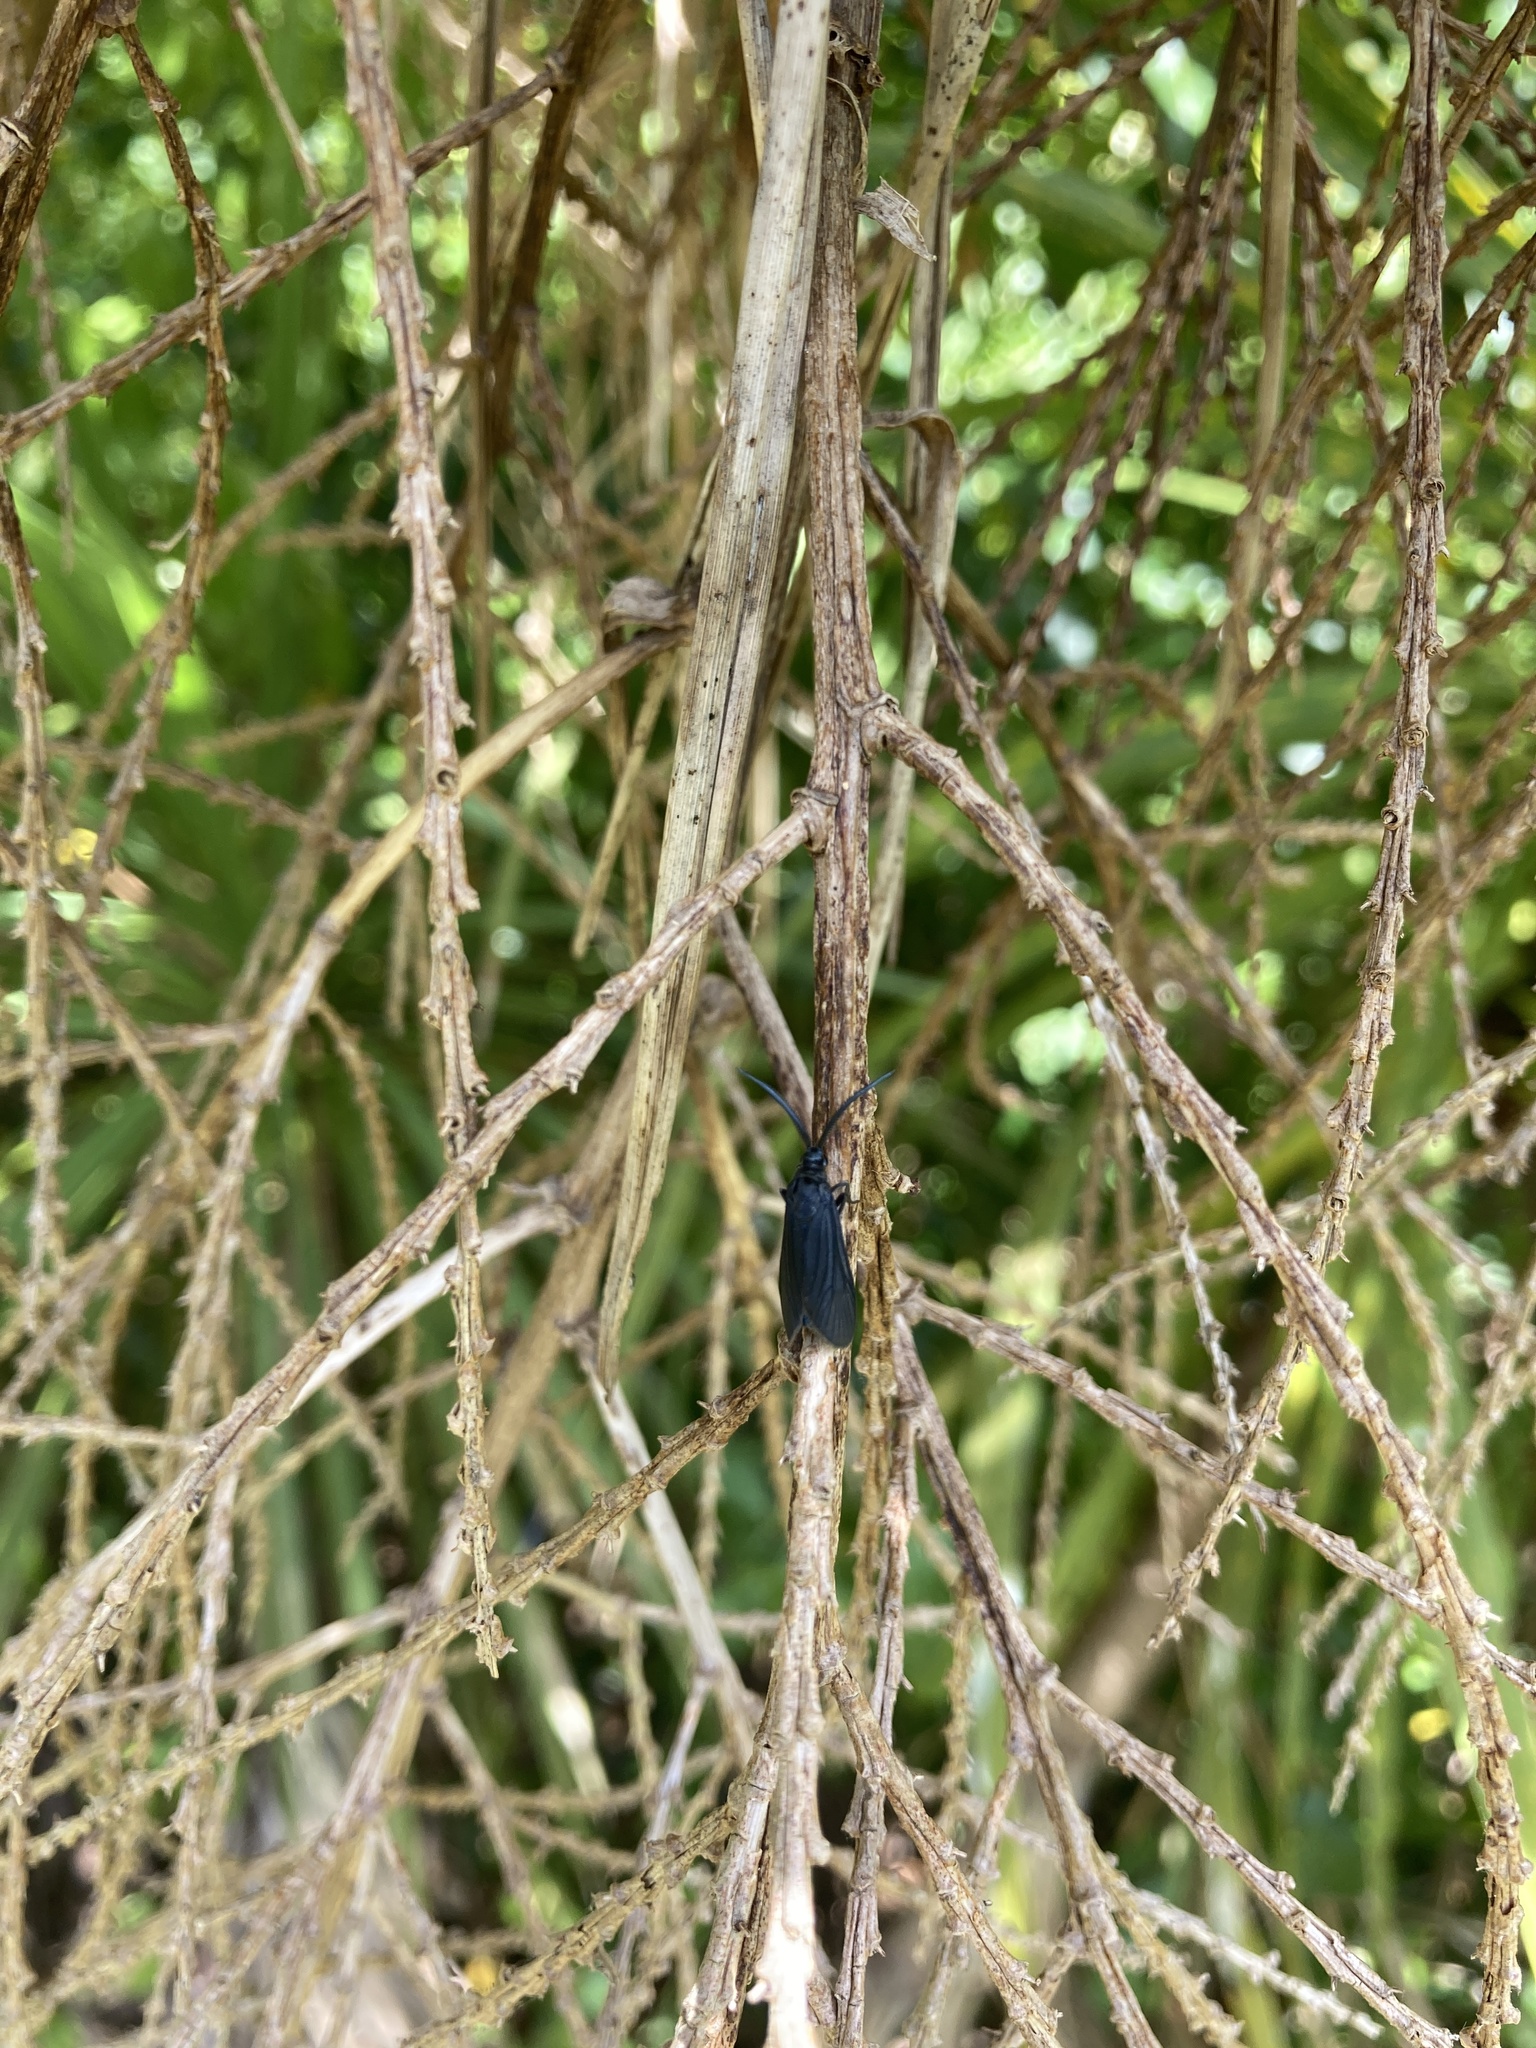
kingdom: Animalia
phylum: Arthropoda
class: Insecta
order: Lepidoptera
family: Zygaenidae
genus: Artona
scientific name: Artona martini
